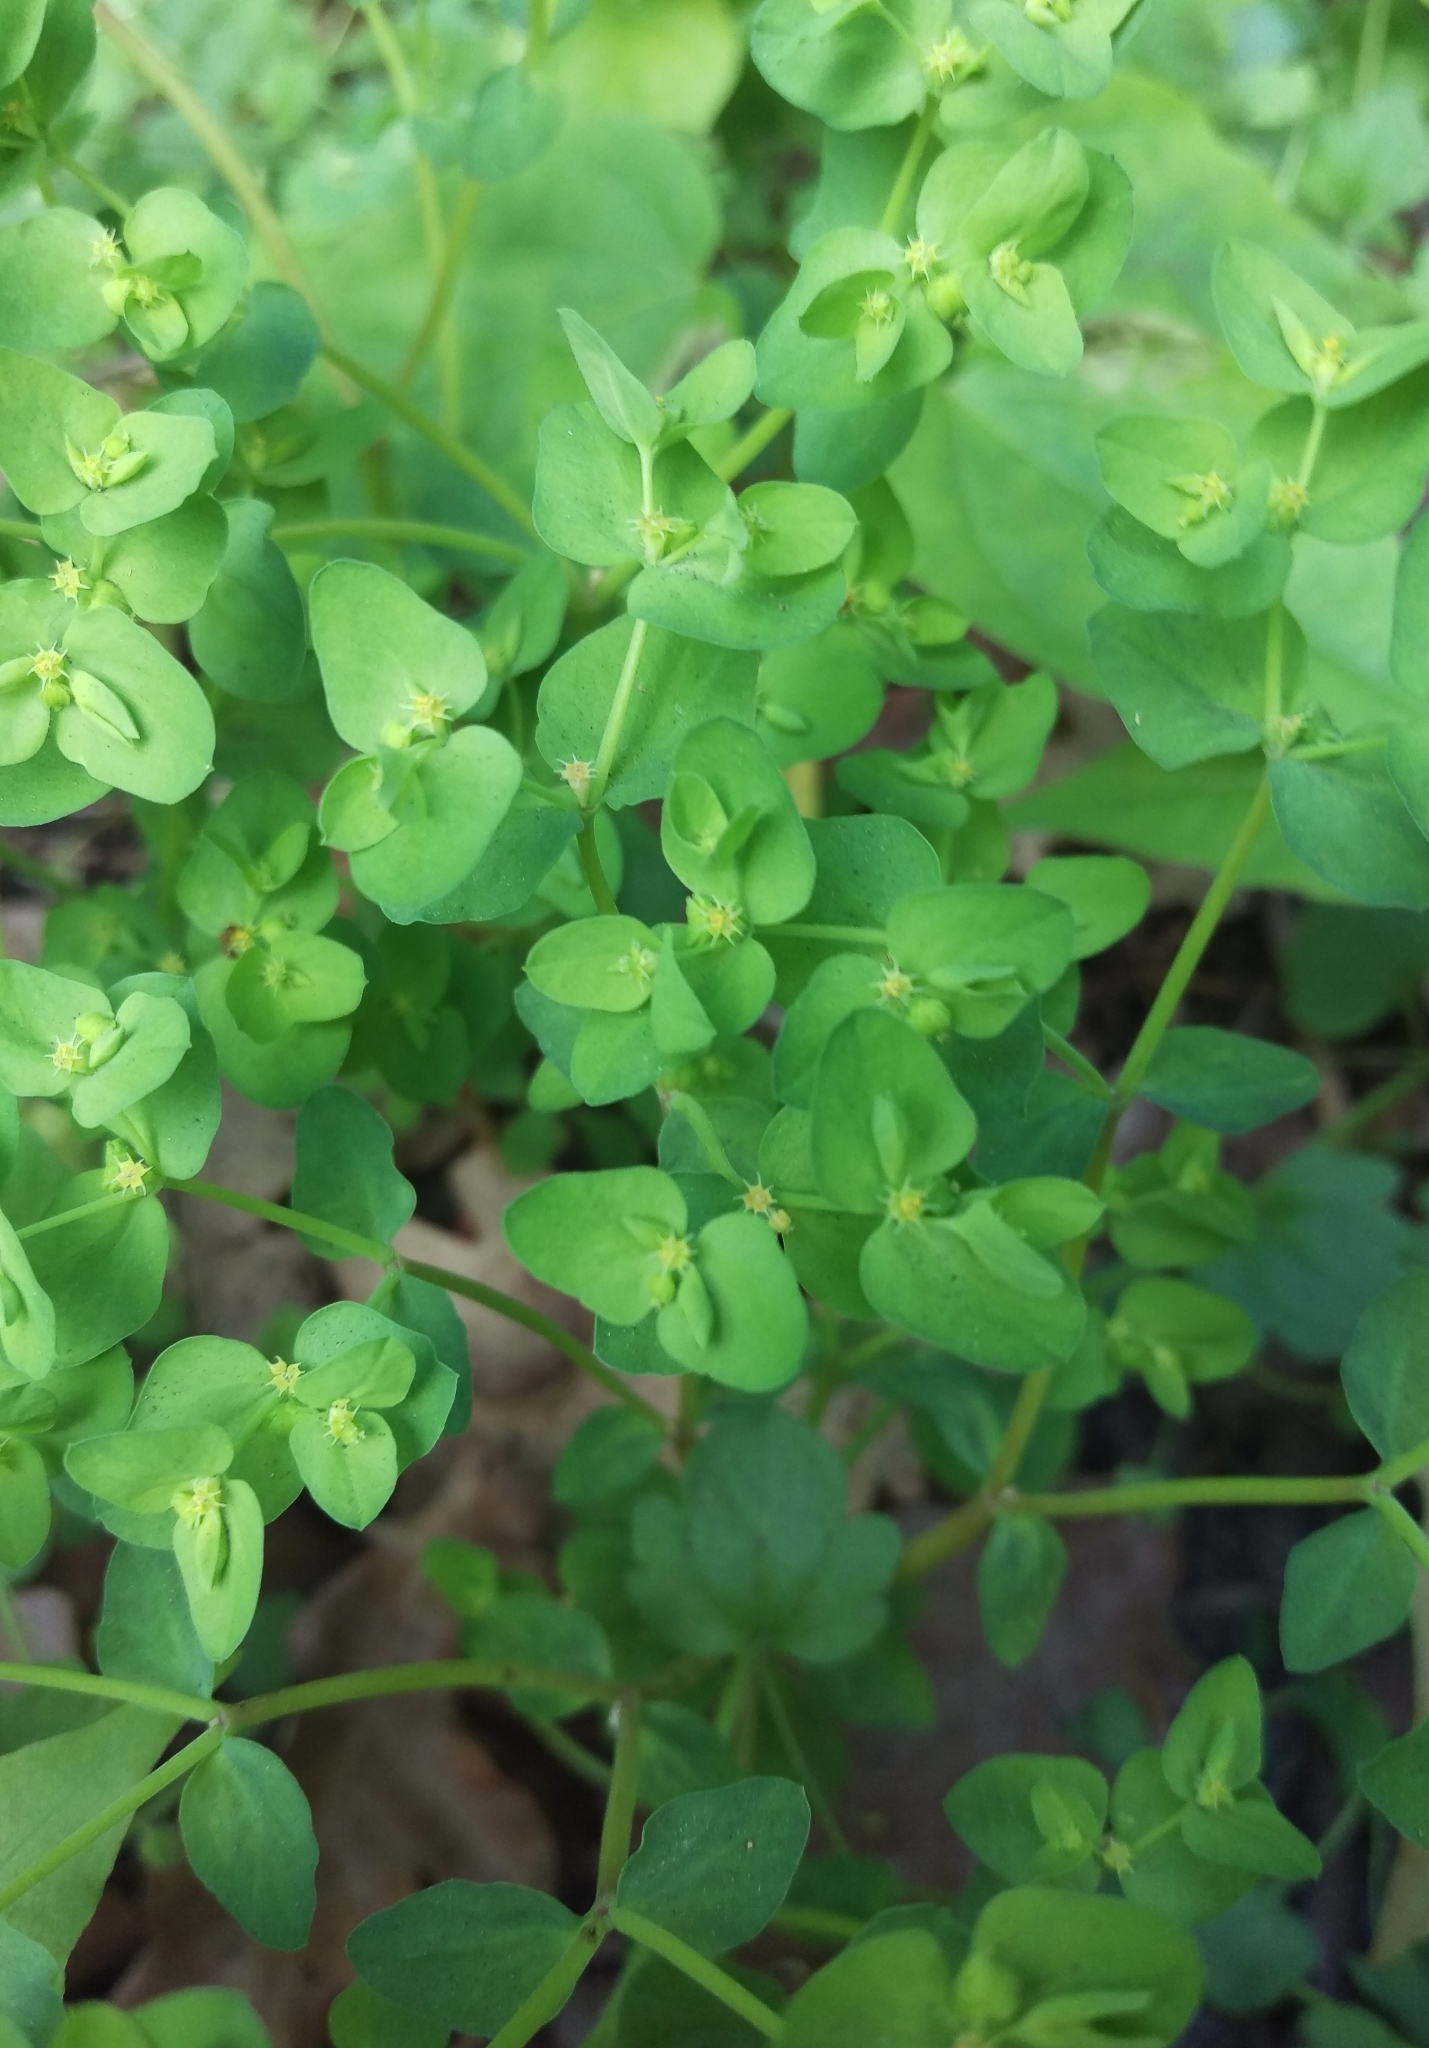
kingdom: Plantae
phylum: Tracheophyta
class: Magnoliopsida
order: Malpighiales
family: Euphorbiaceae
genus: Euphorbia
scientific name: Euphorbia peplus
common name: Petty spurge
